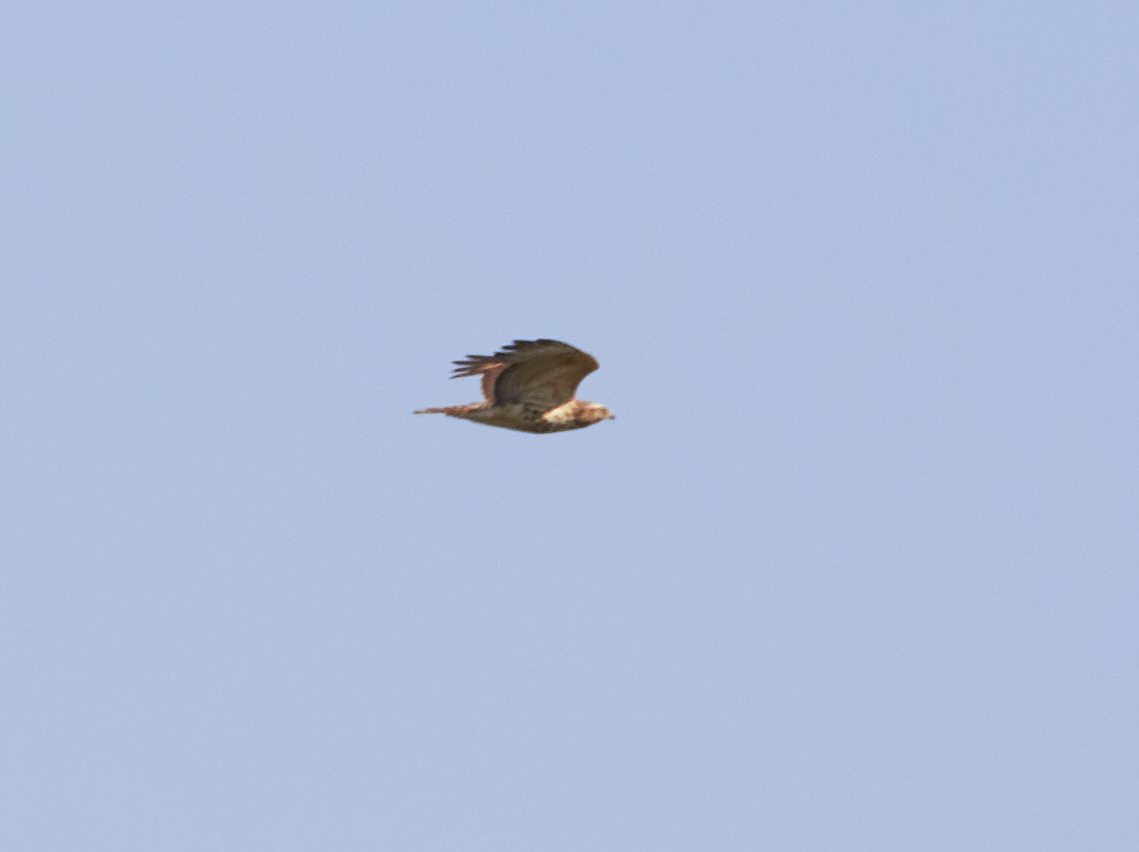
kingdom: Animalia
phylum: Chordata
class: Aves
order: Accipitriformes
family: Accipitridae
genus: Buteo
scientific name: Buteo lineatus
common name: Red-shouldered hawk
